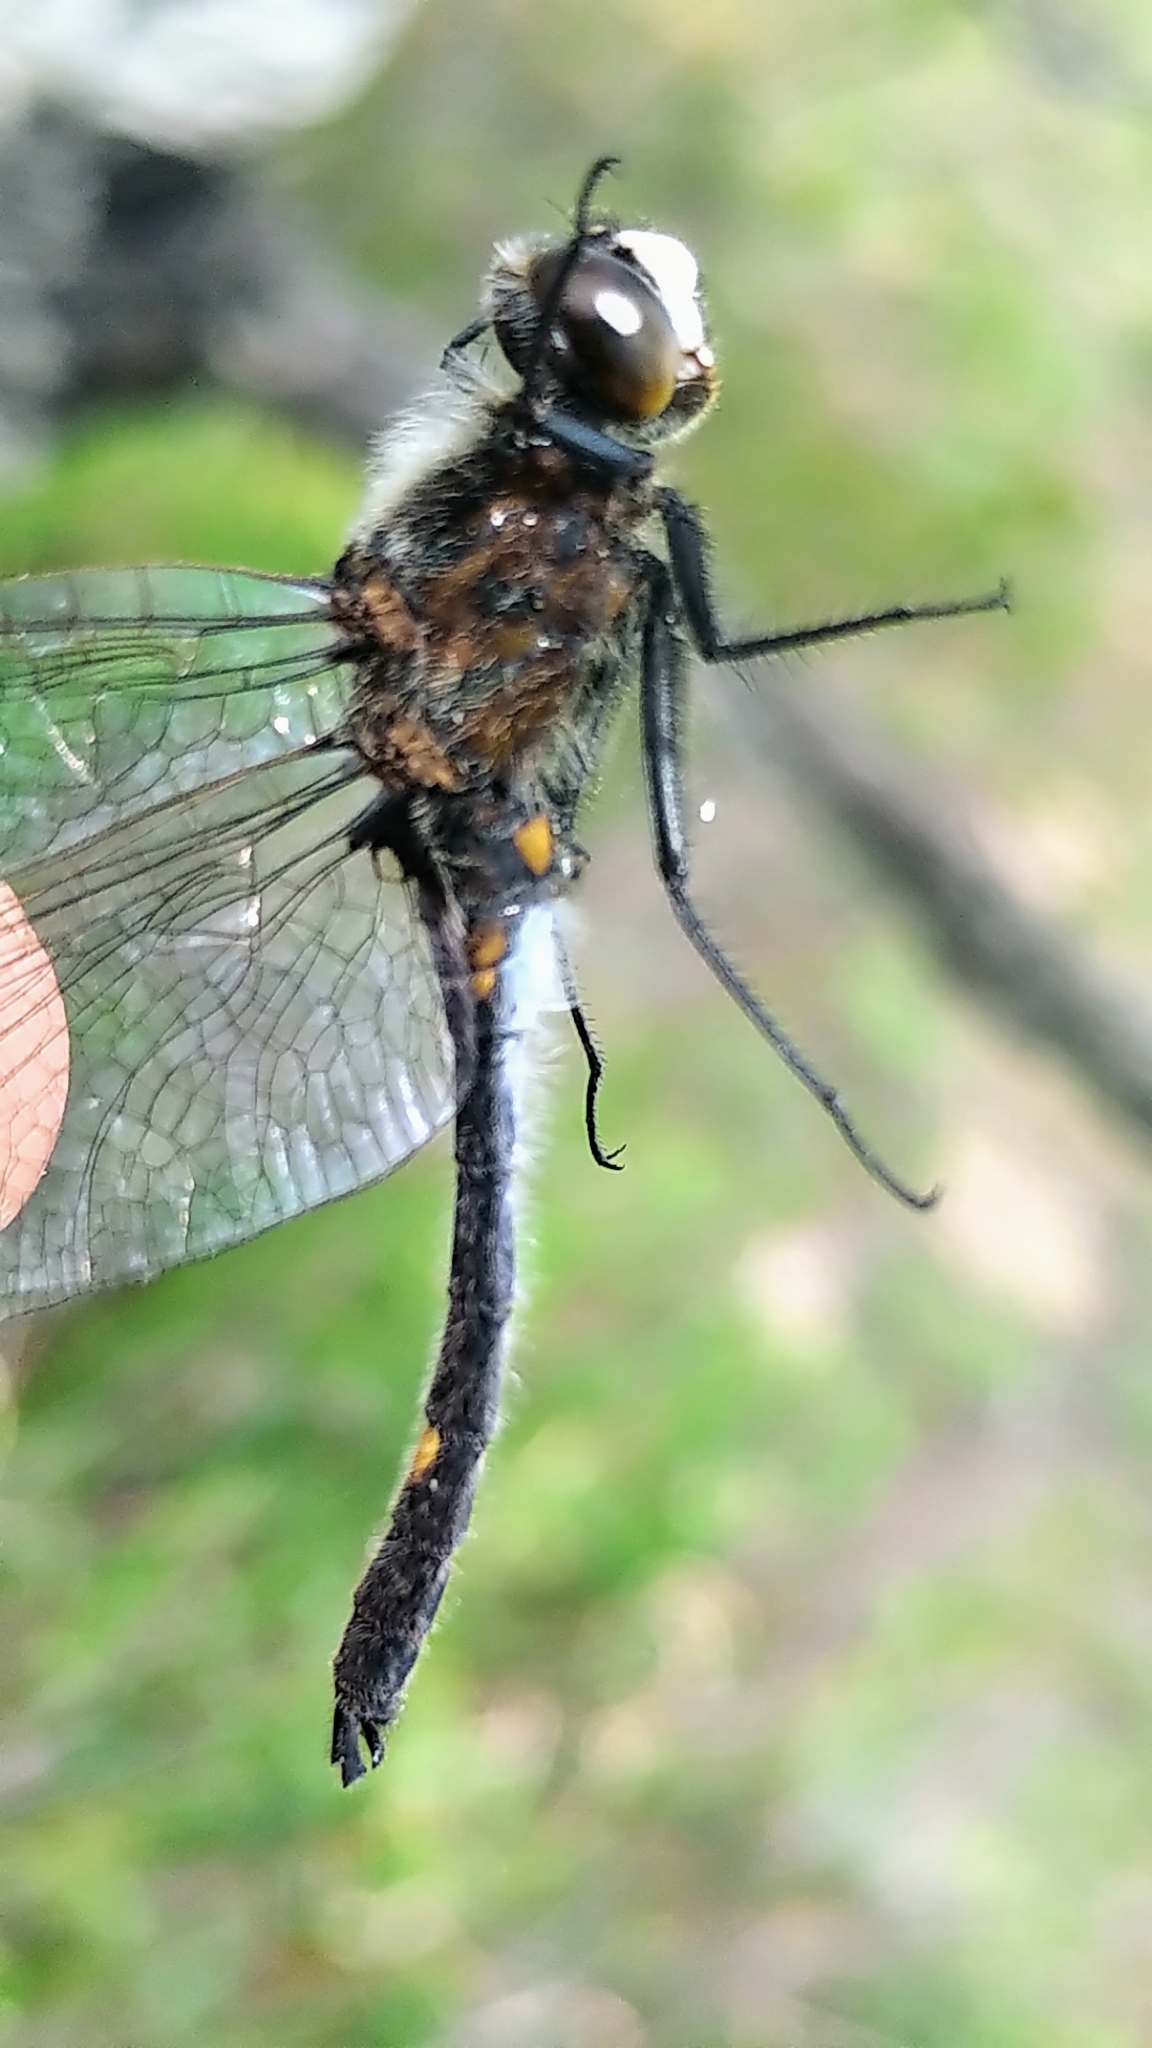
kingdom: Animalia
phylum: Arthropoda
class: Insecta
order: Odonata
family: Libellulidae
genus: Leucorrhinia
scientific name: Leucorrhinia intacta
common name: Dot-tailed whiteface
